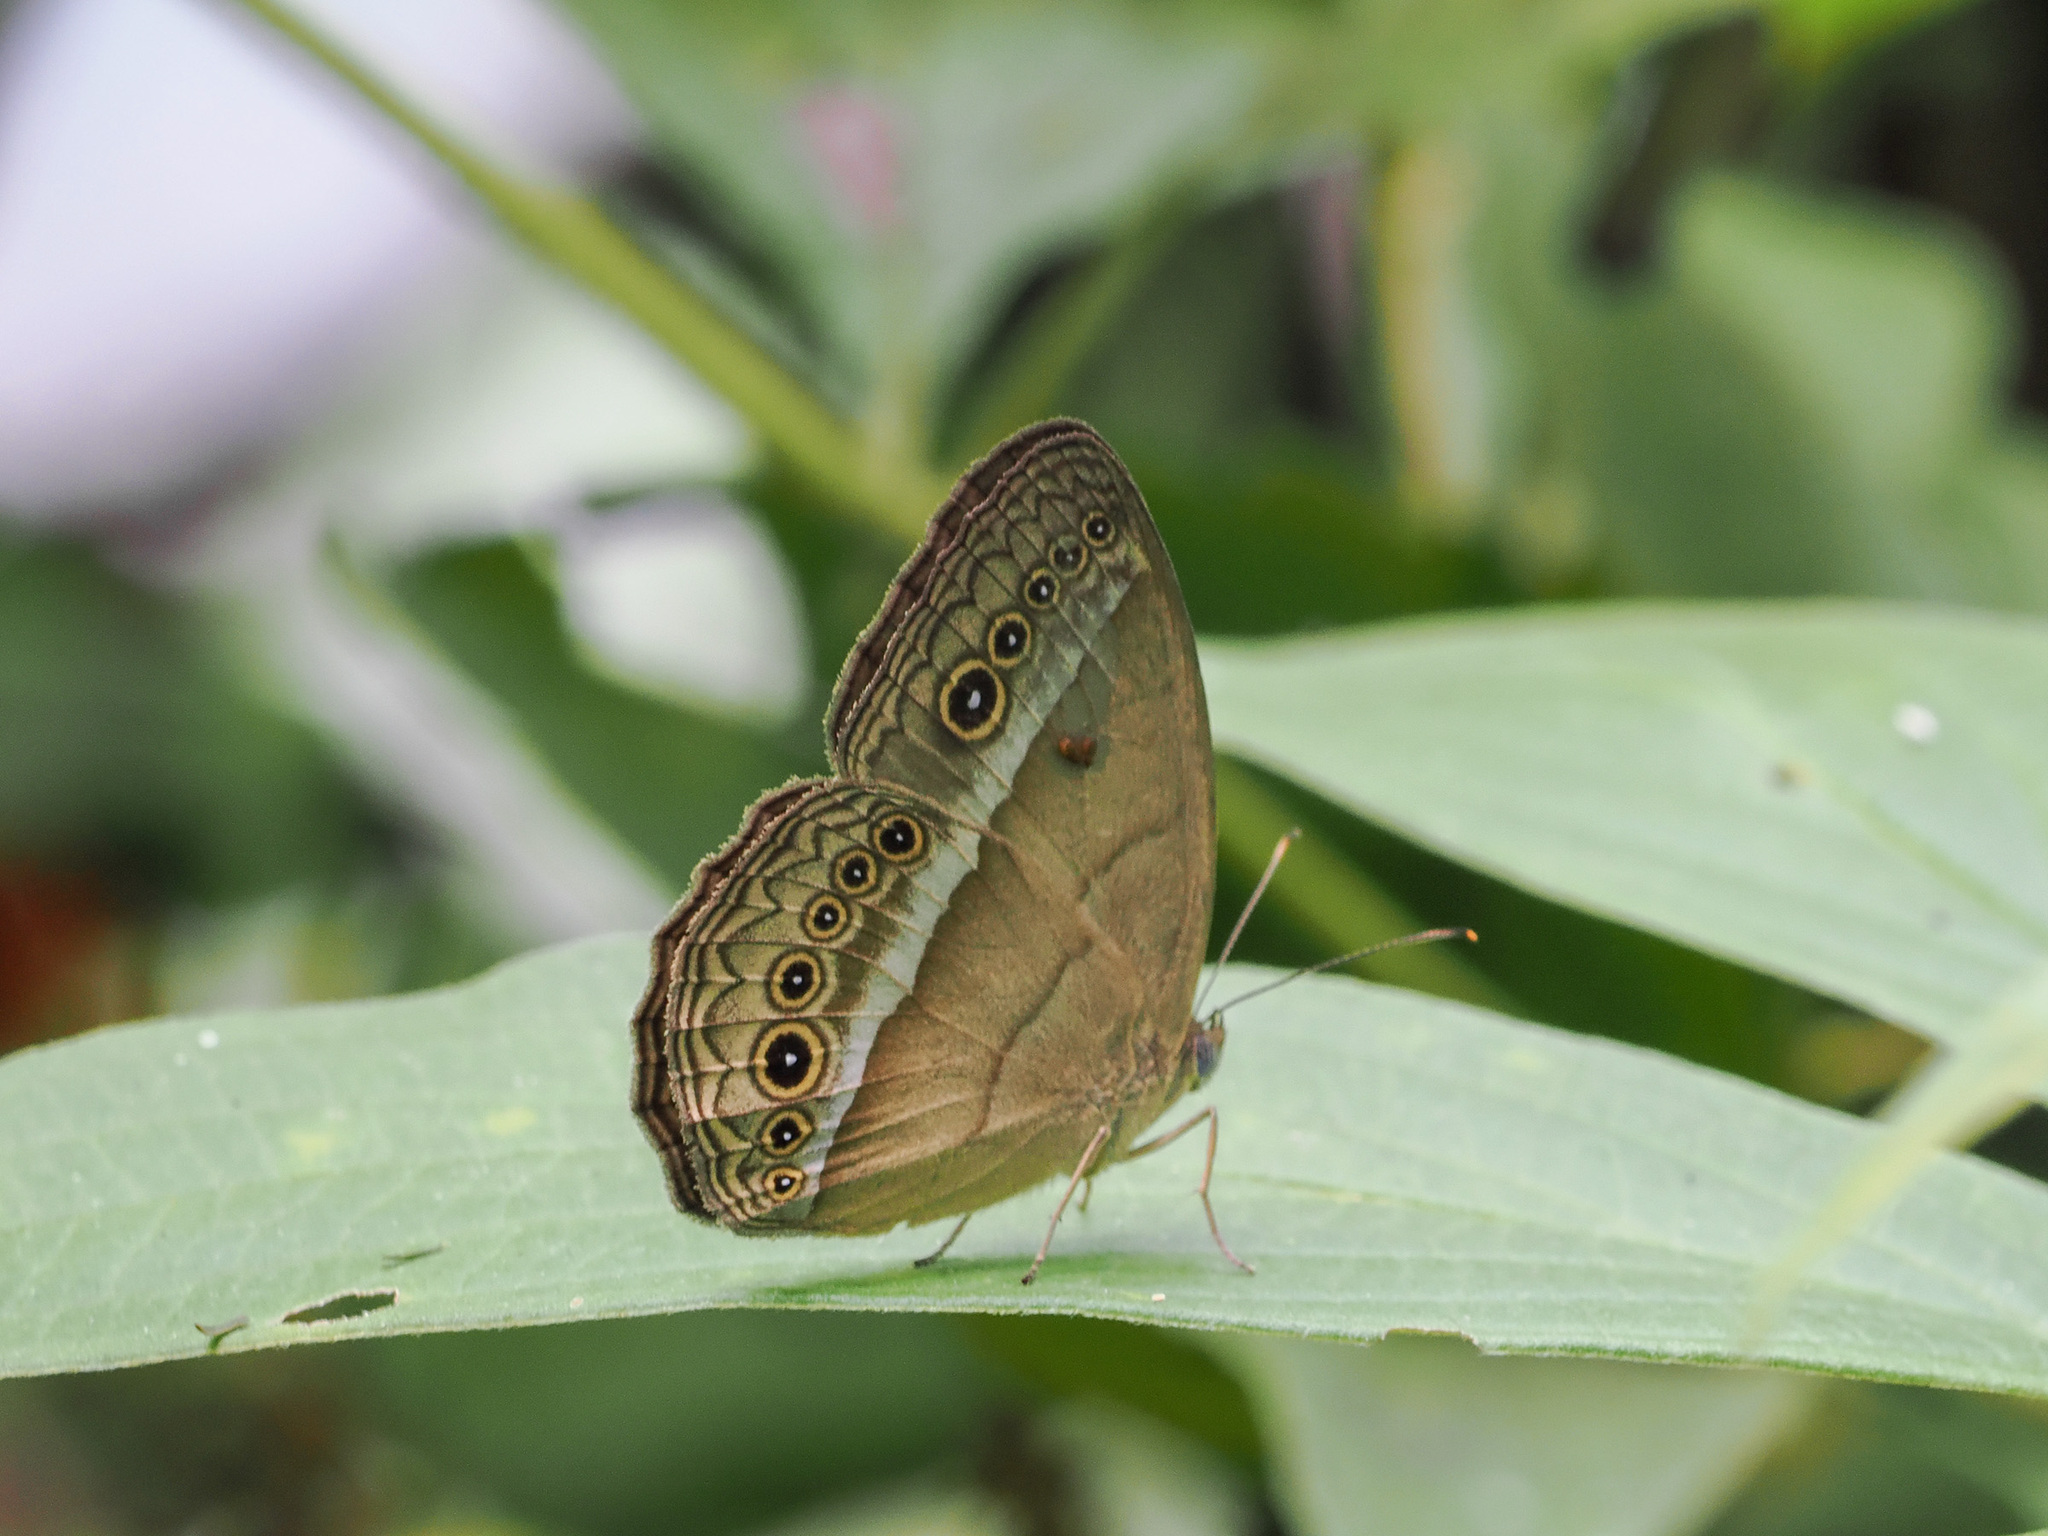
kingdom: Animalia
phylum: Arthropoda
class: Insecta
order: Lepidoptera
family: Nymphalidae
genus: Mycalesis
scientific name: Mycalesis orseis
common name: Purple bushbrown
